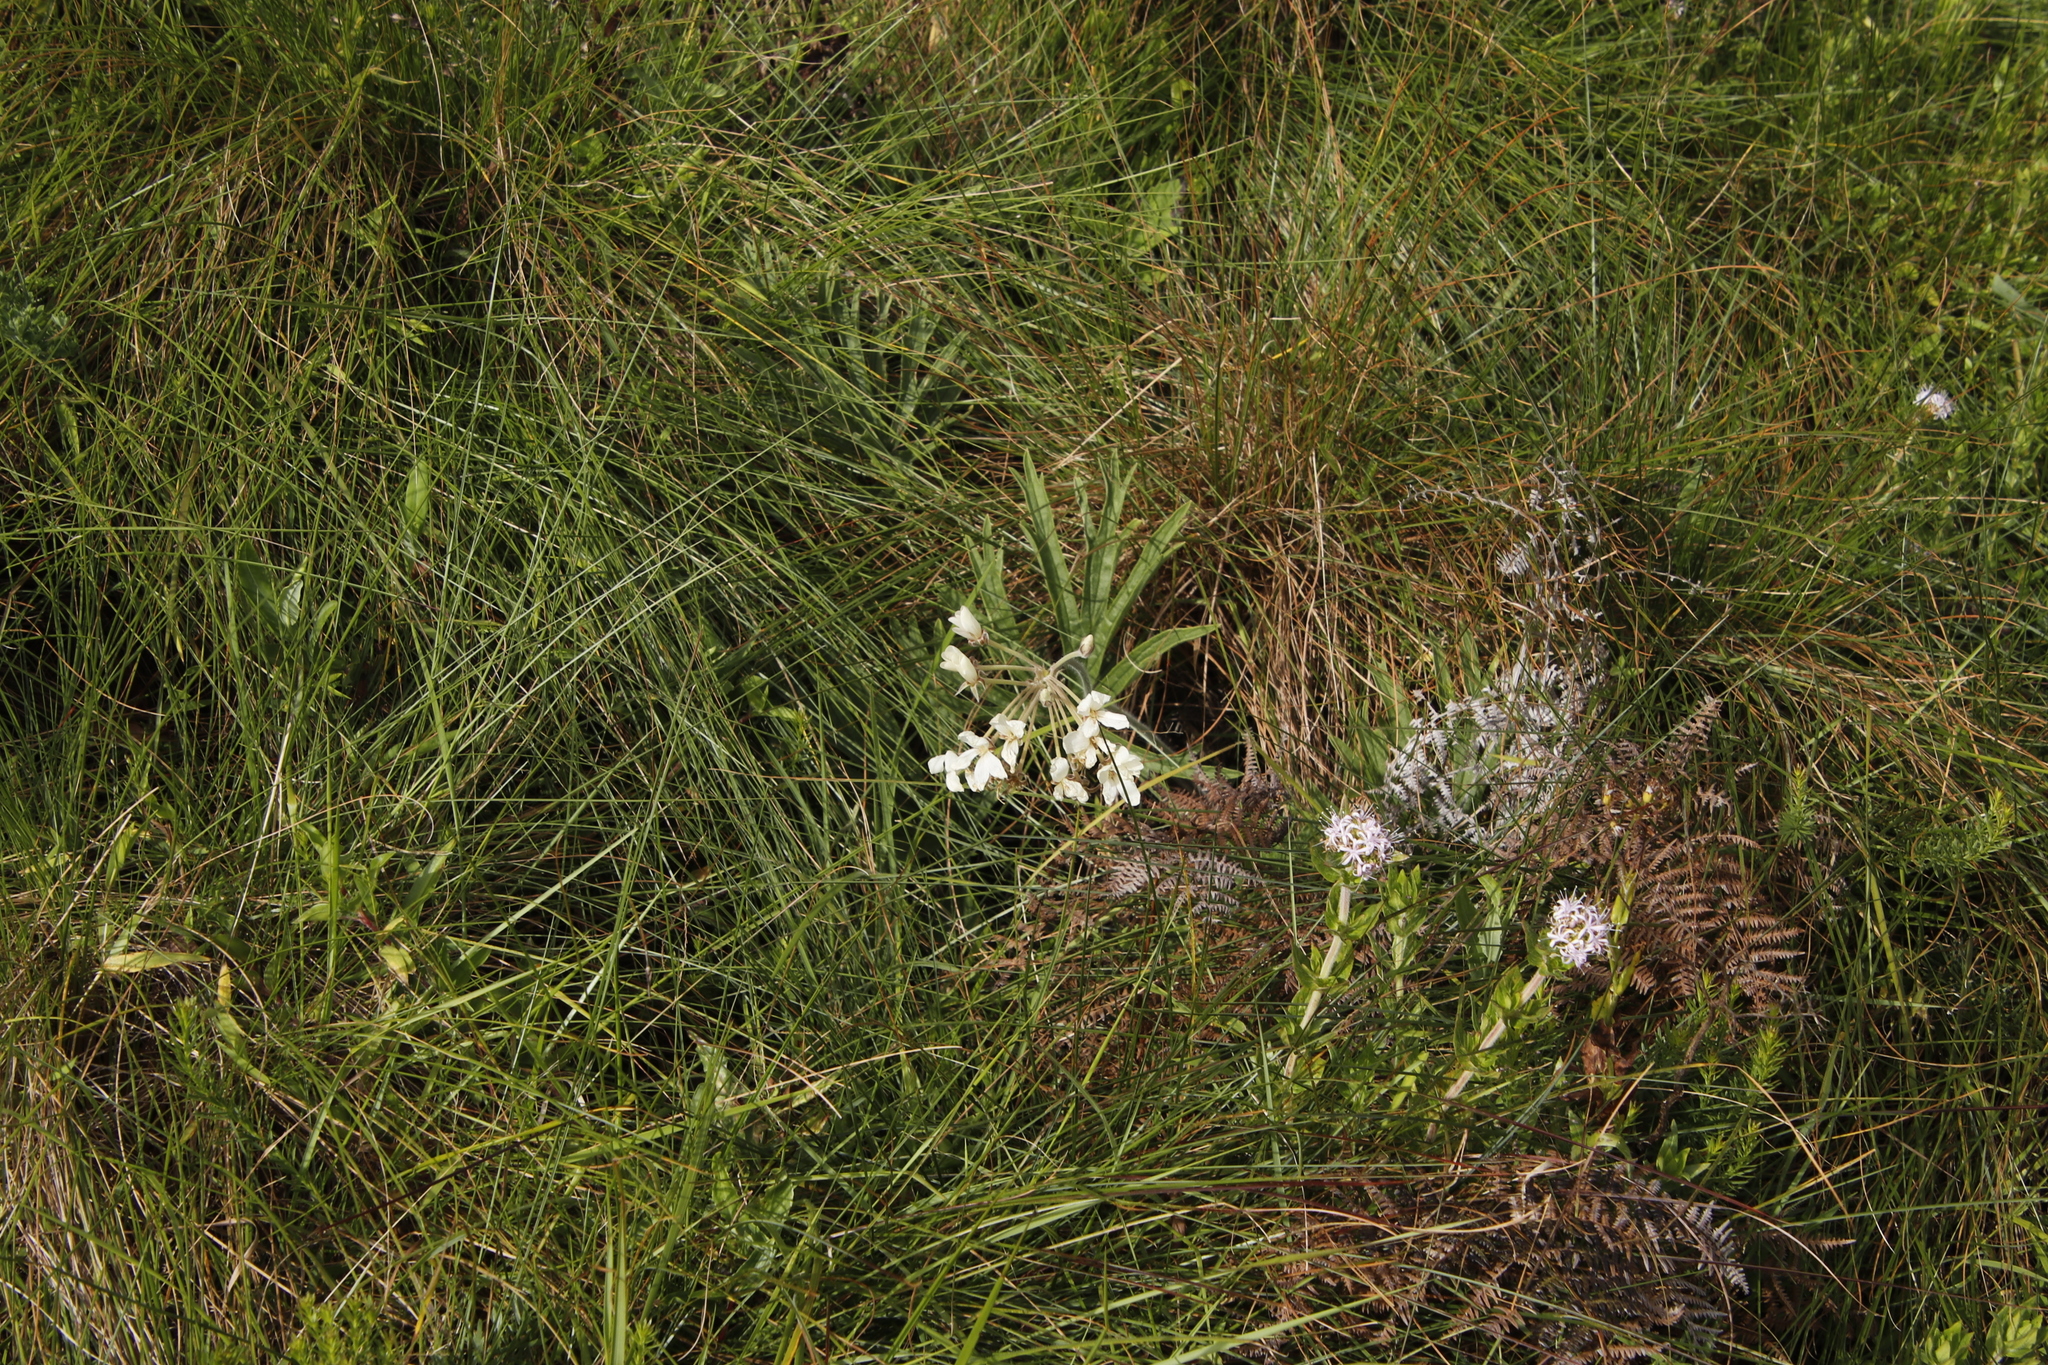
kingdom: Plantae
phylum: Tracheophyta
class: Magnoliopsida
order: Geraniales
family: Geraniaceae
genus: Pelargonium
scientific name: Pelargonium luridum
